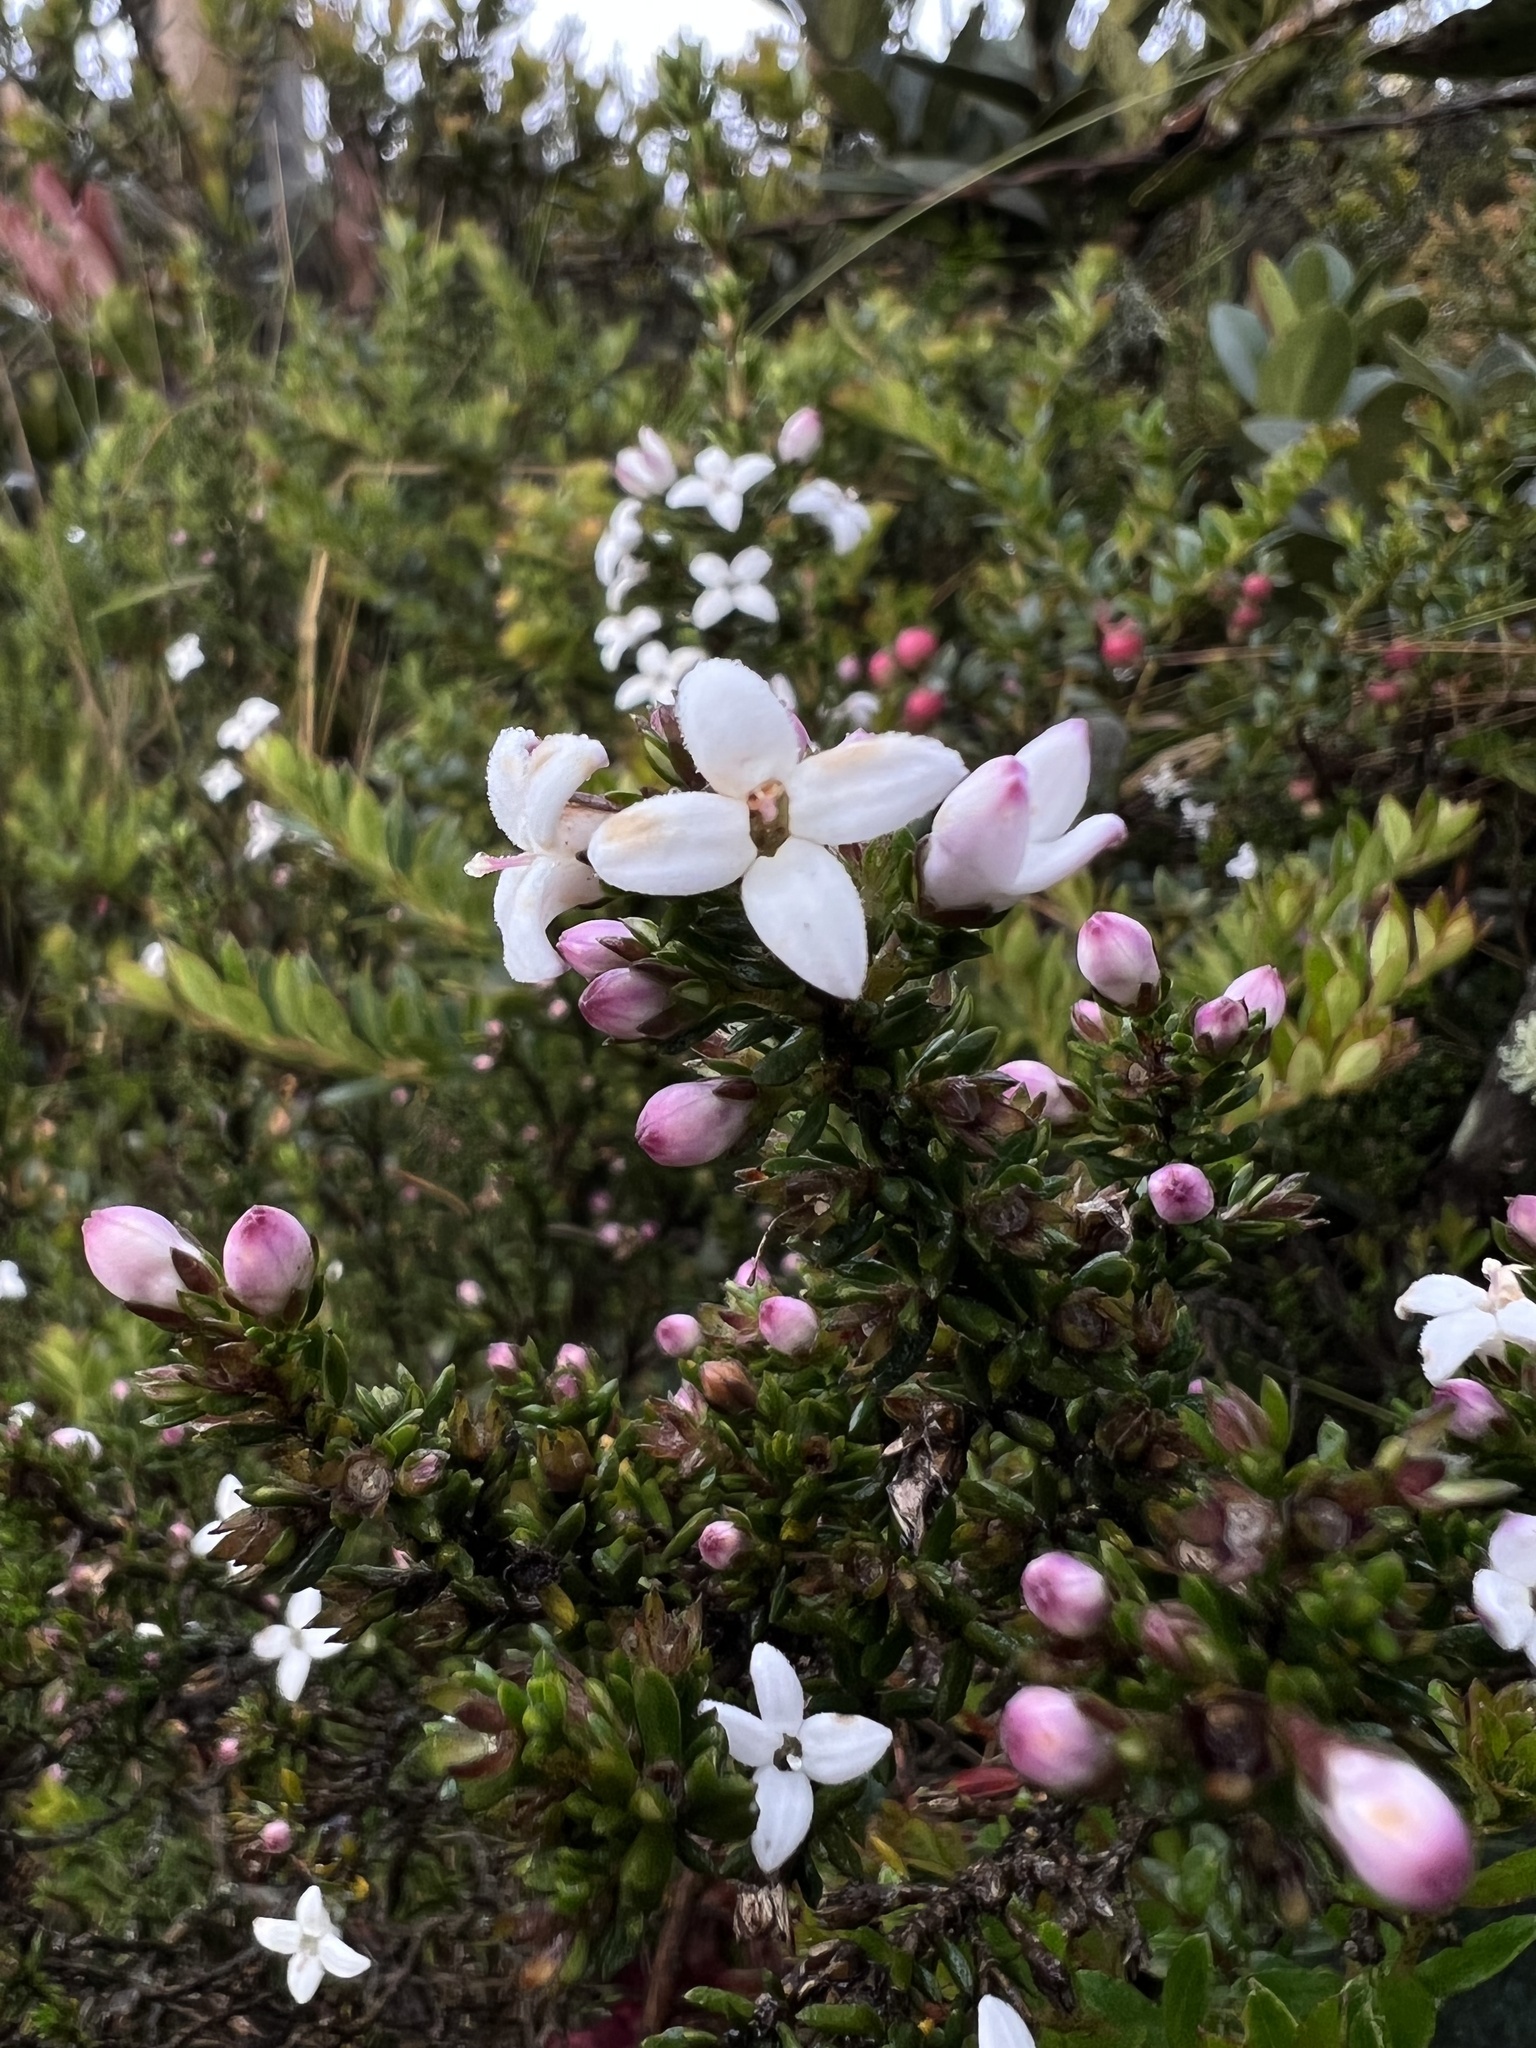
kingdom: Plantae
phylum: Tracheophyta
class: Magnoliopsida
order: Gentianales
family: Rubiaceae
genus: Arcytophyllum
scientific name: Arcytophyllum nitidum
